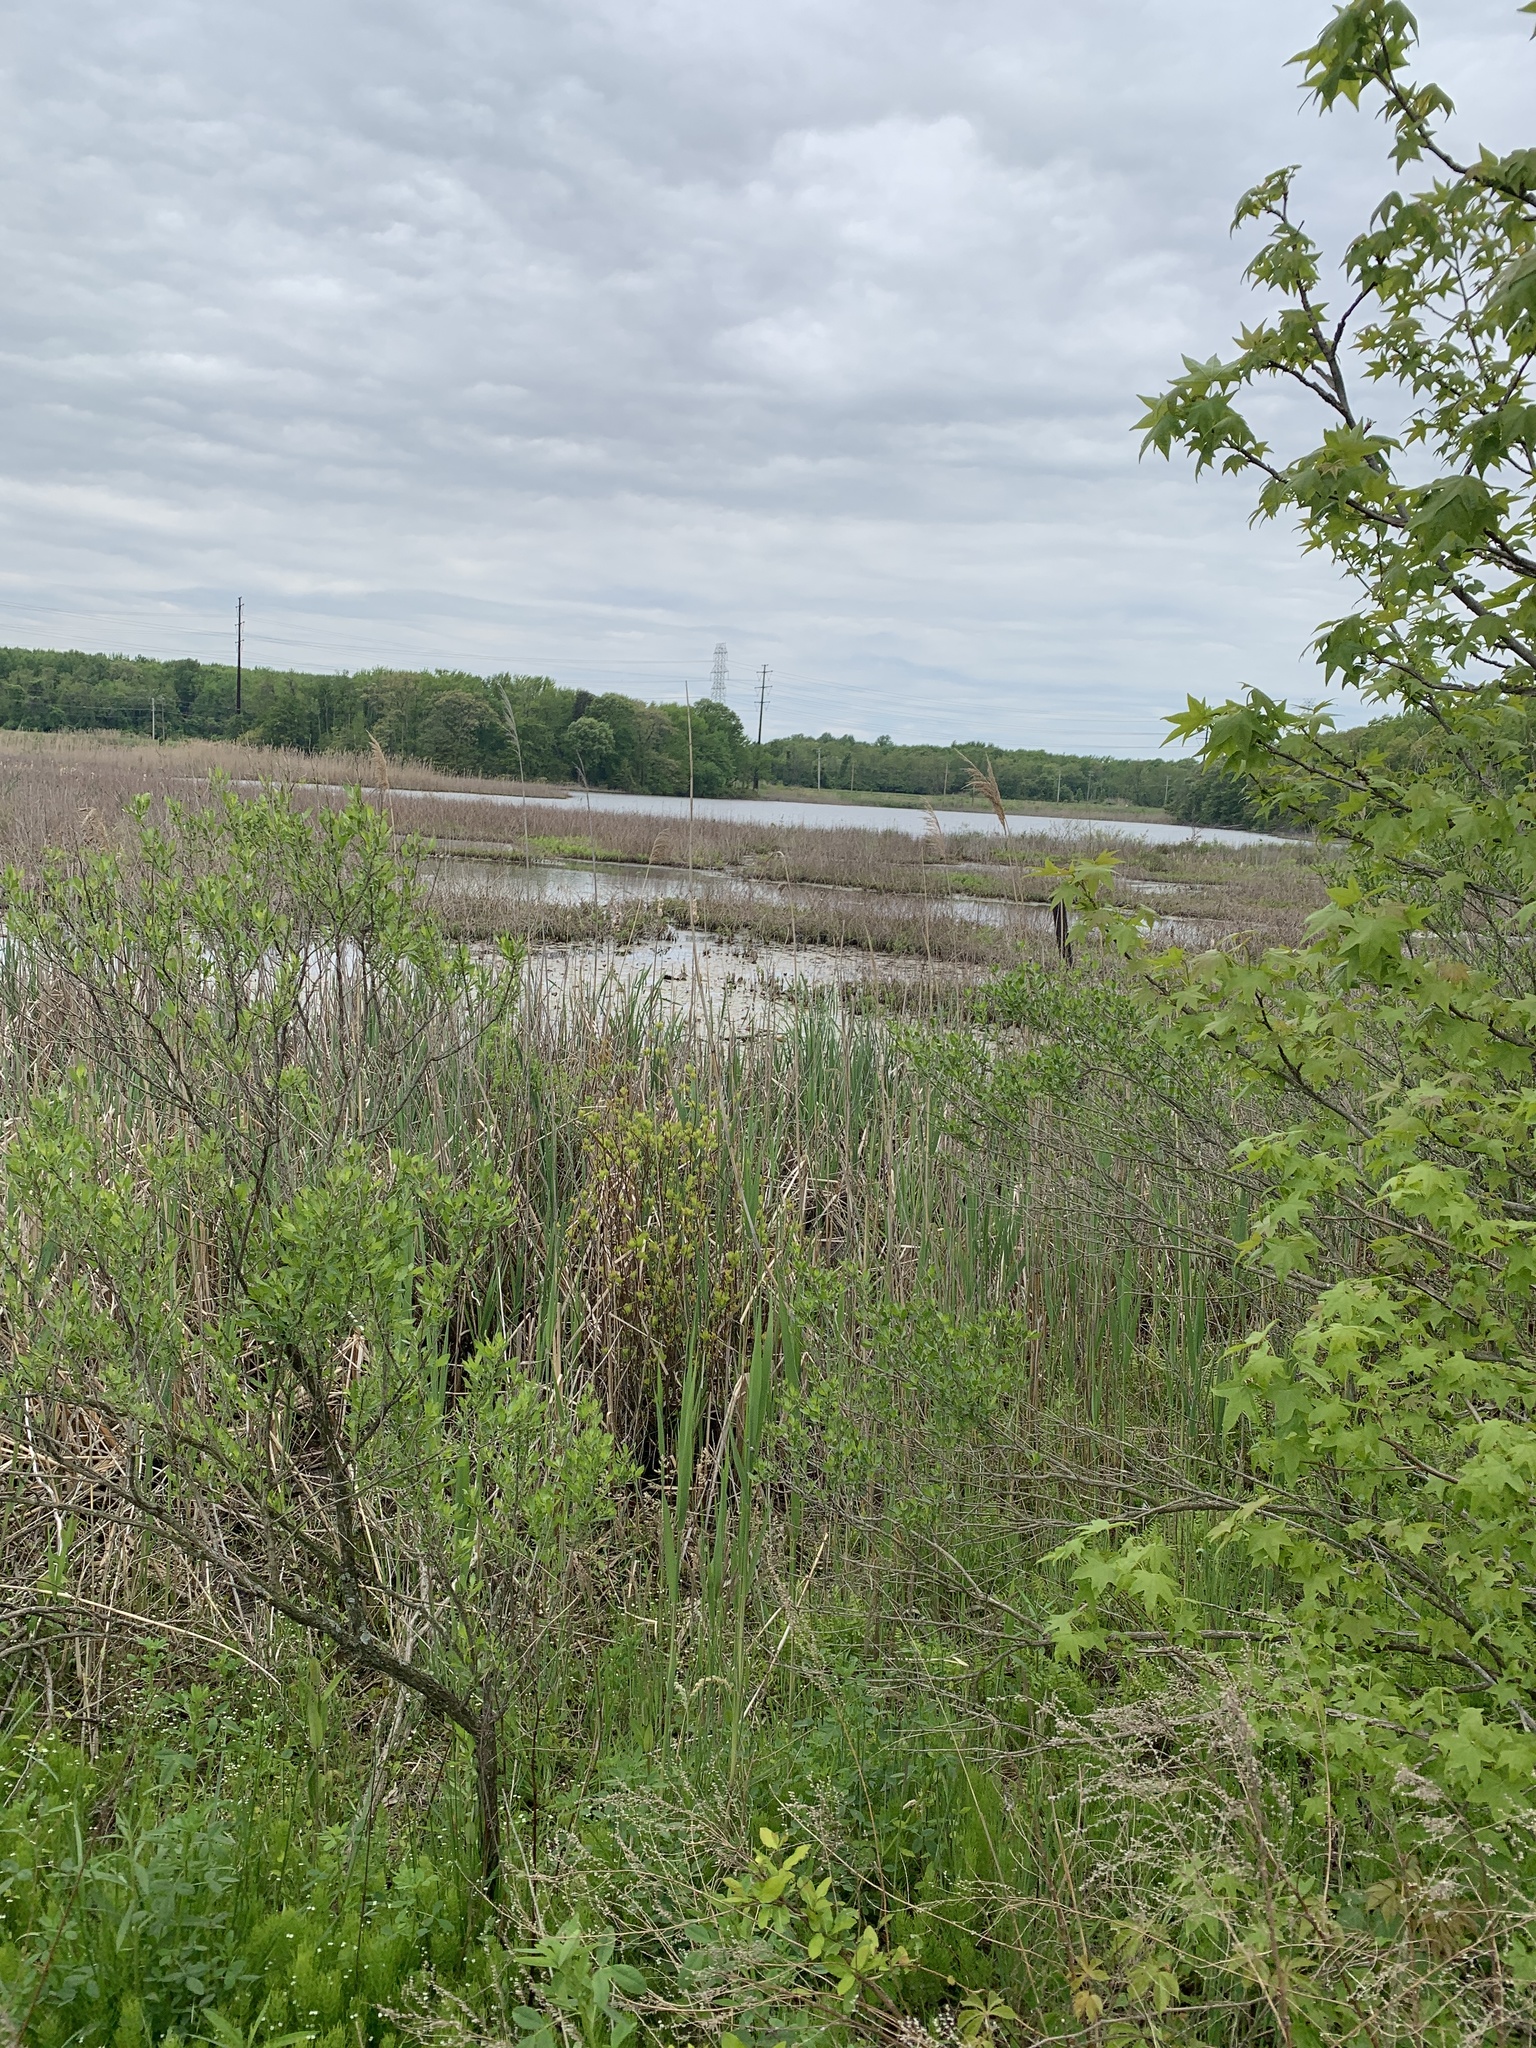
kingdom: Plantae
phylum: Tracheophyta
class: Liliopsida
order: Poales
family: Poaceae
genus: Phragmites
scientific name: Phragmites australis
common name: Common reed
